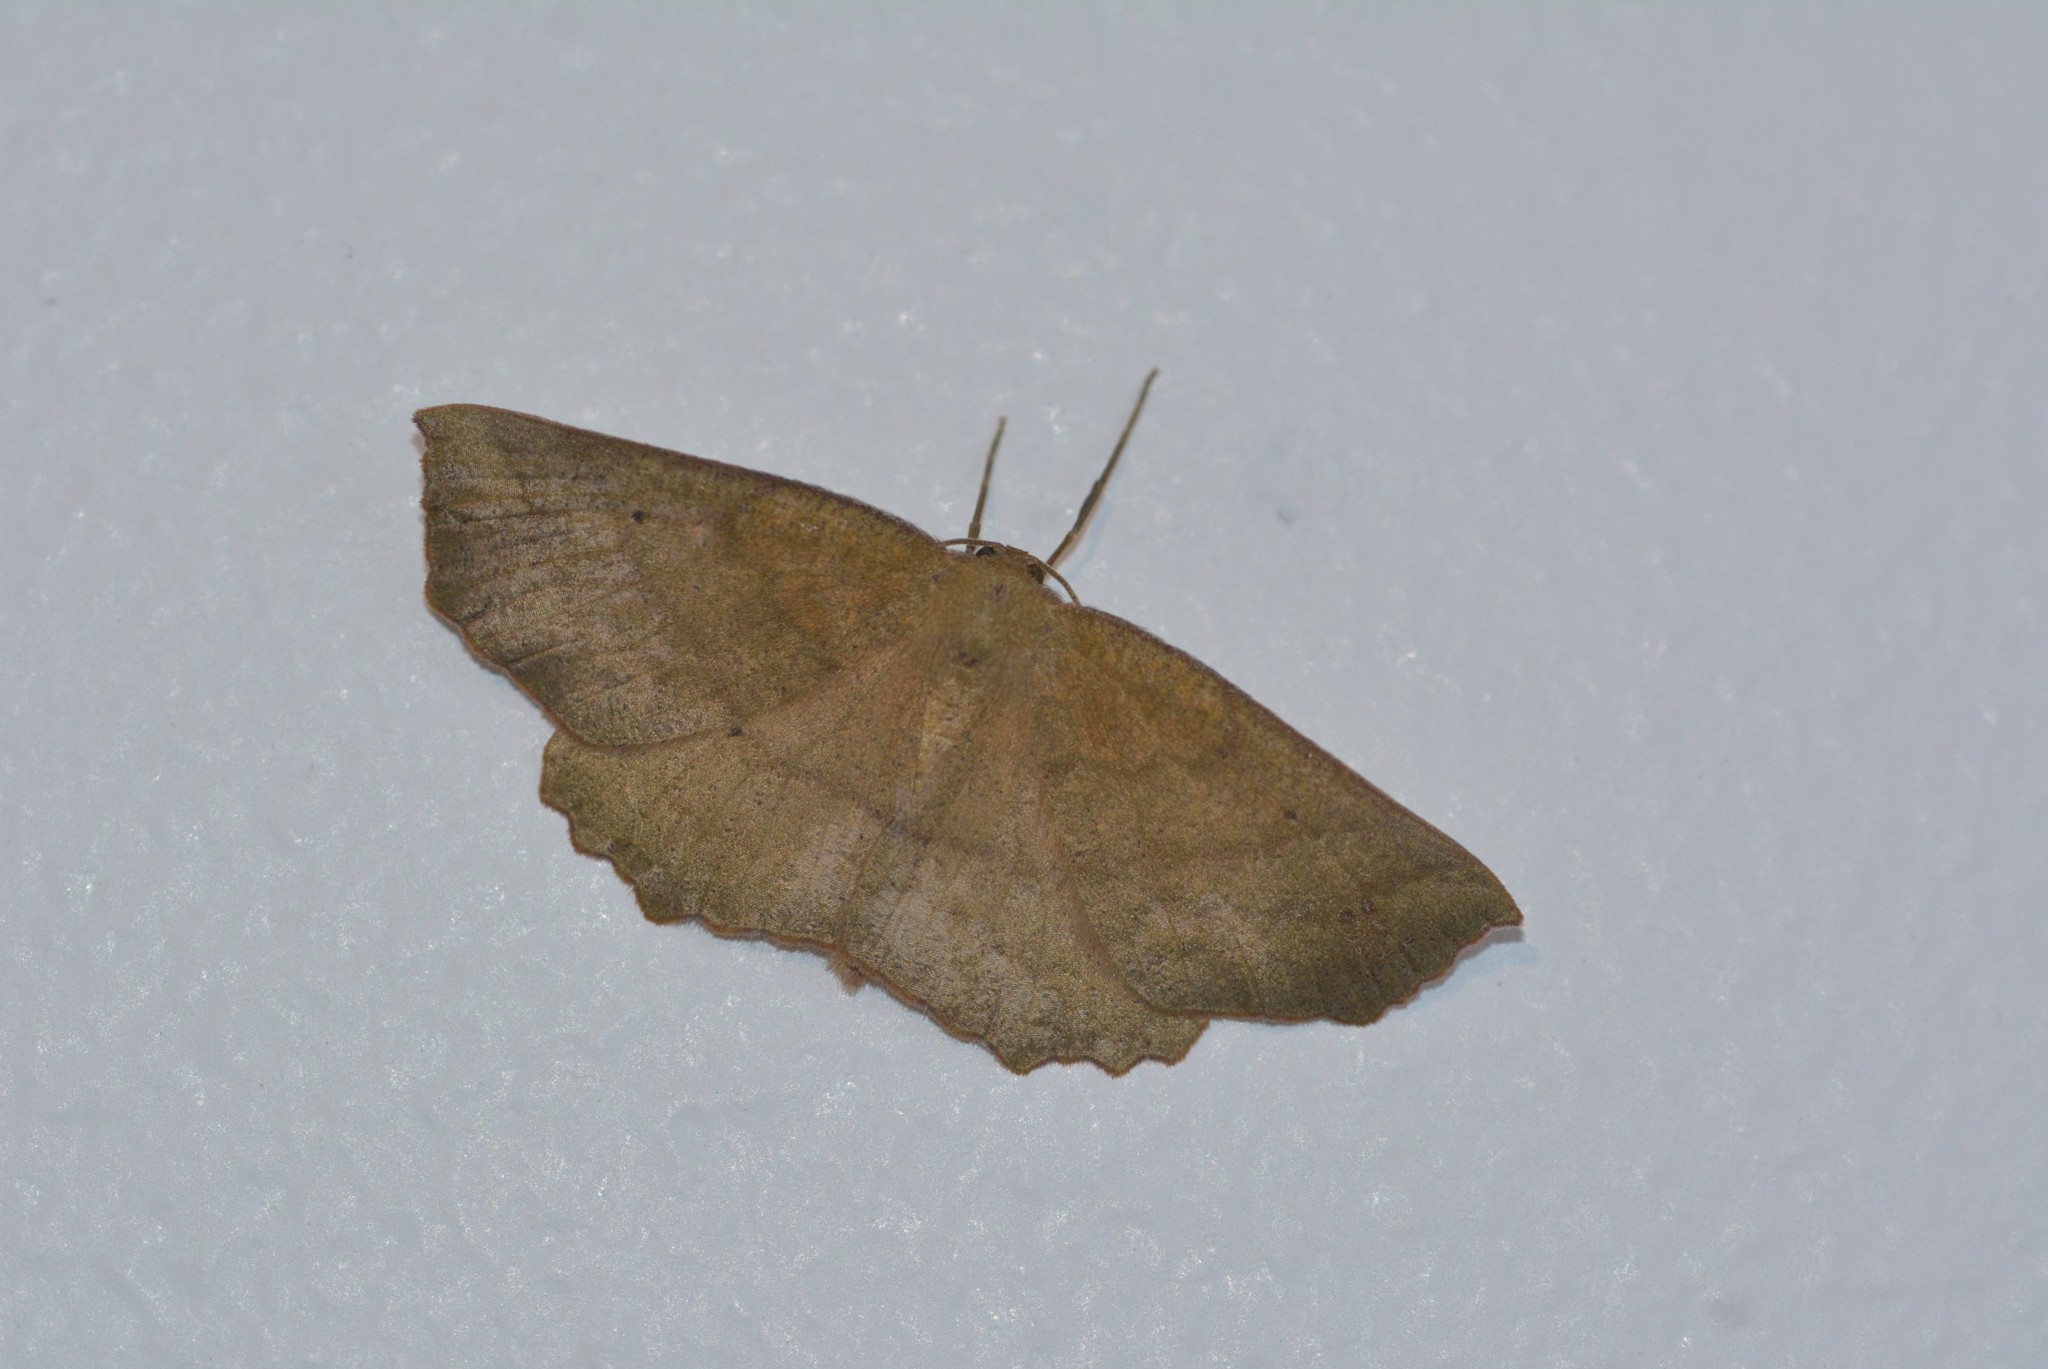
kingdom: Animalia
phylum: Arthropoda
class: Insecta
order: Lepidoptera
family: Geometridae
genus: Xyridacma
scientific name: Xyridacma ustaria
